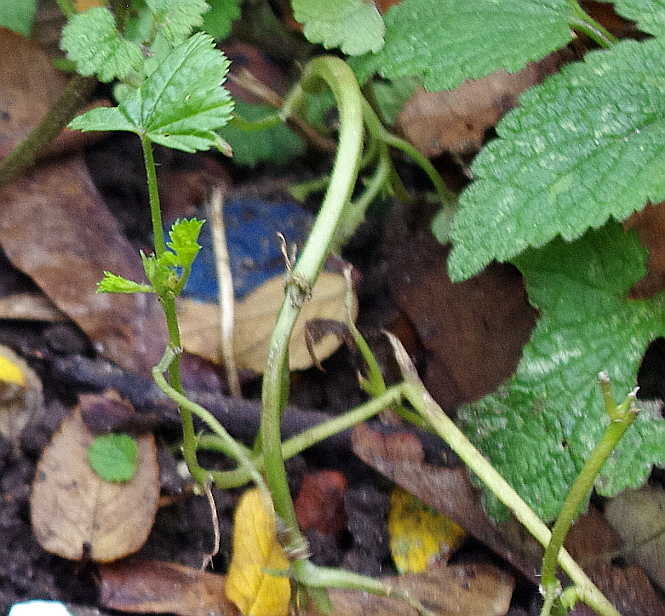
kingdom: Plantae
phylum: Tracheophyta
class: Magnoliopsida
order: Malvales
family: Malvaceae
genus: Malva
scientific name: Malva pusilla
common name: Small mallow
